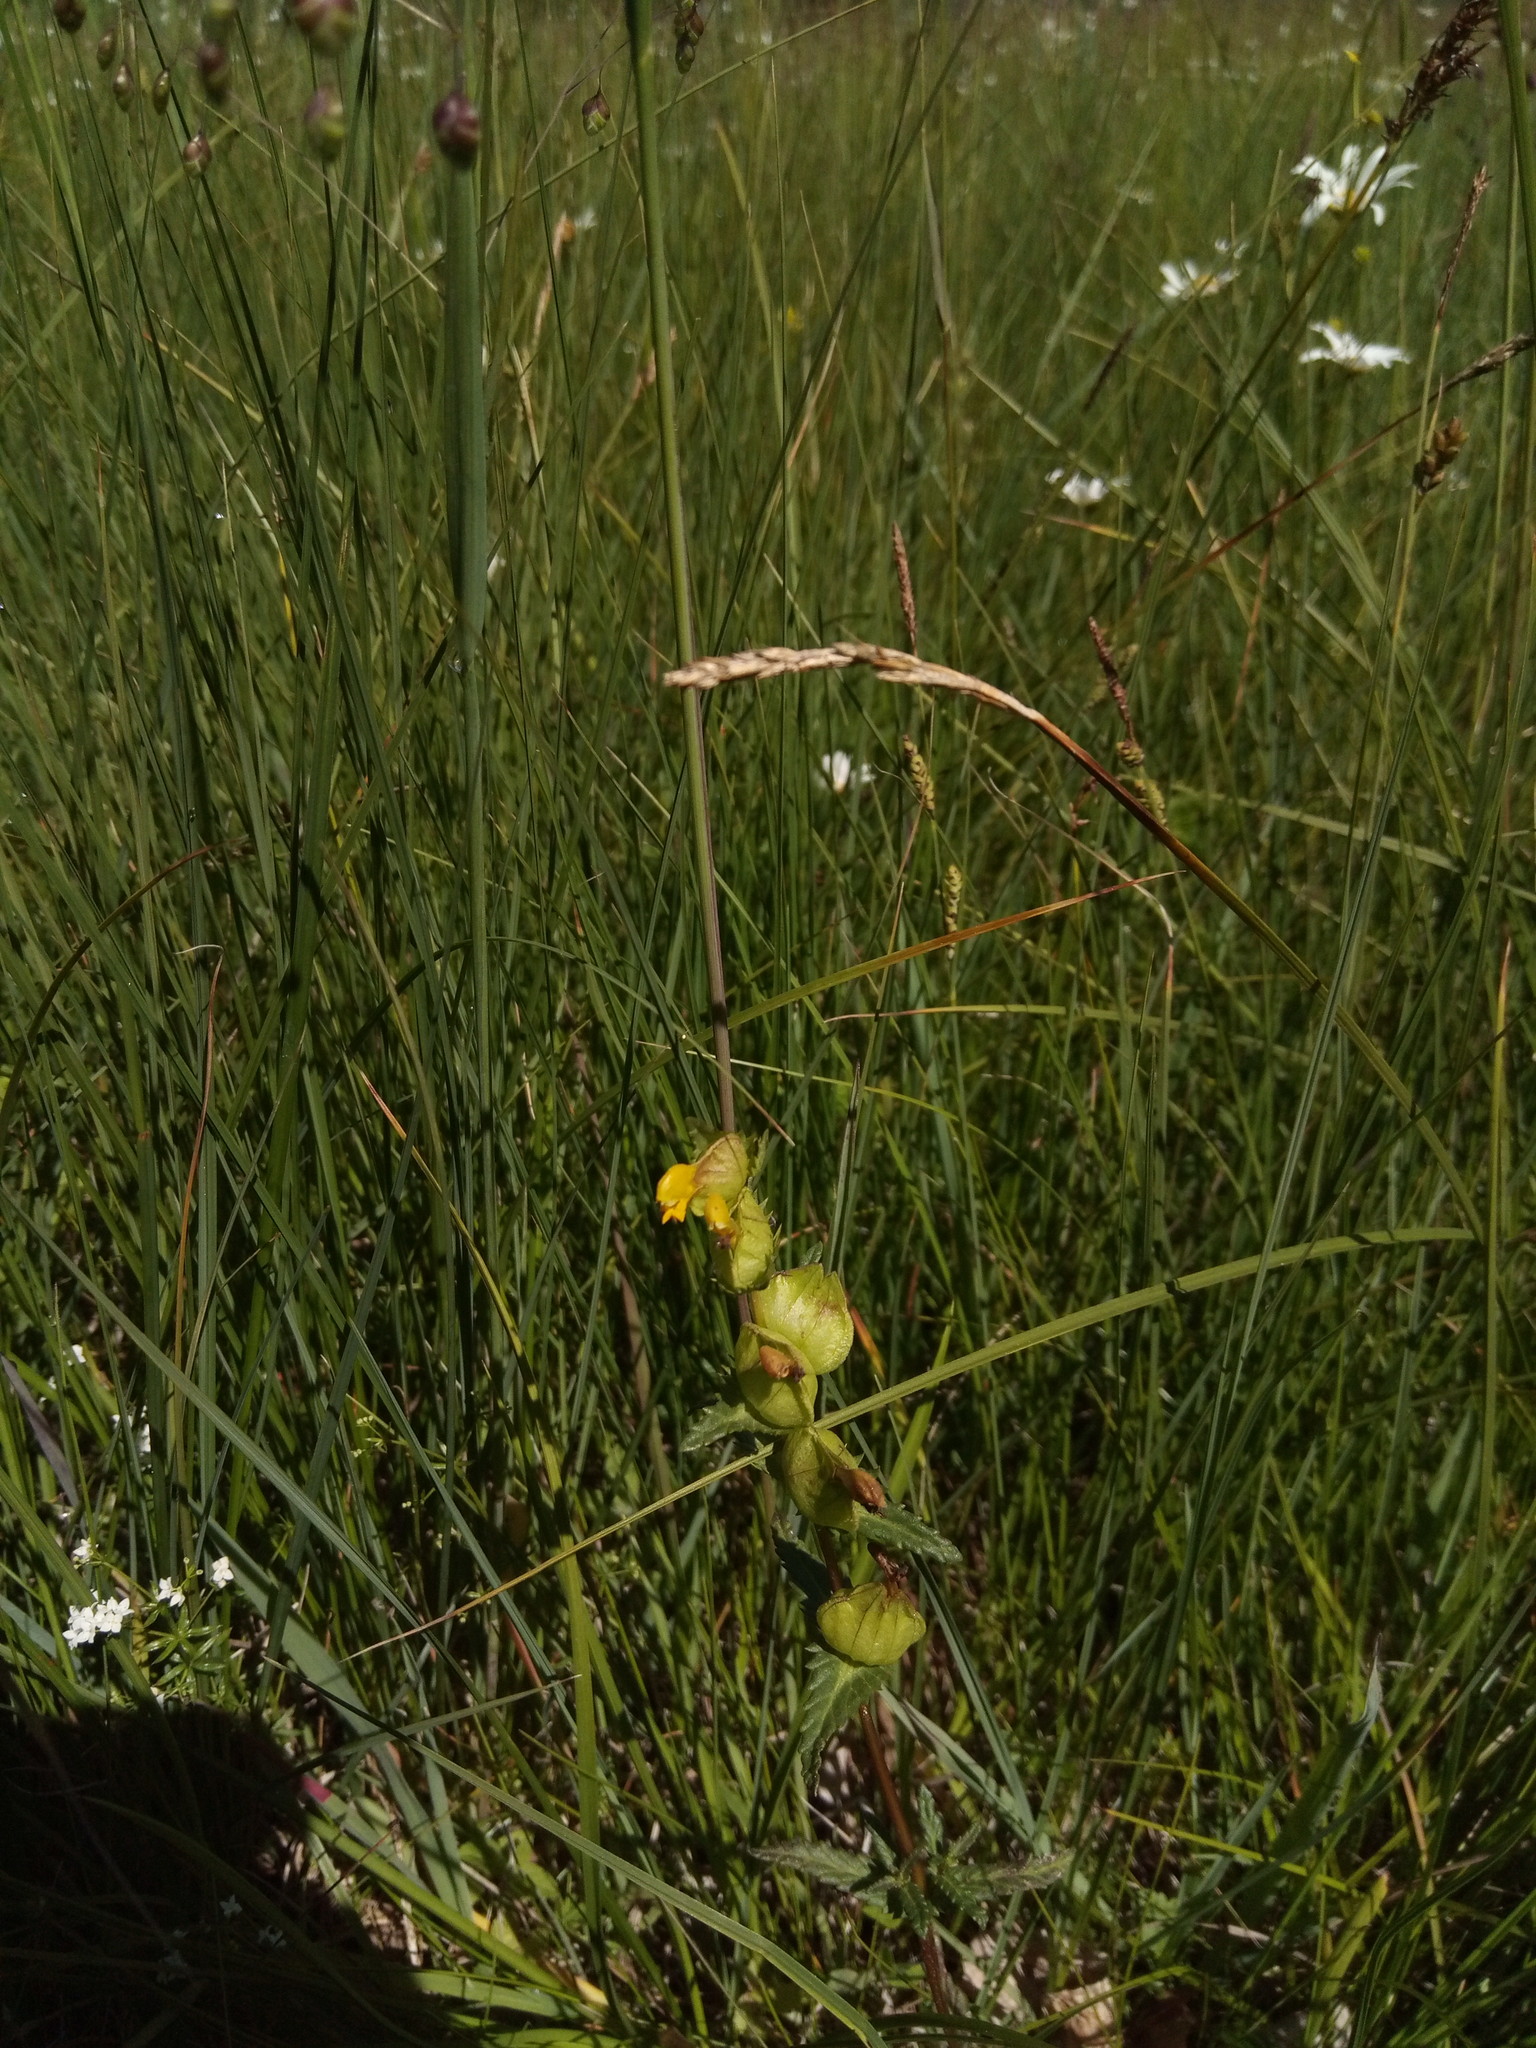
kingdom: Plantae
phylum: Tracheophyta
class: Magnoliopsida
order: Lamiales
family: Orobanchaceae
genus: Rhinanthus
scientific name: Rhinanthus minor
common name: Yellow-rattle
